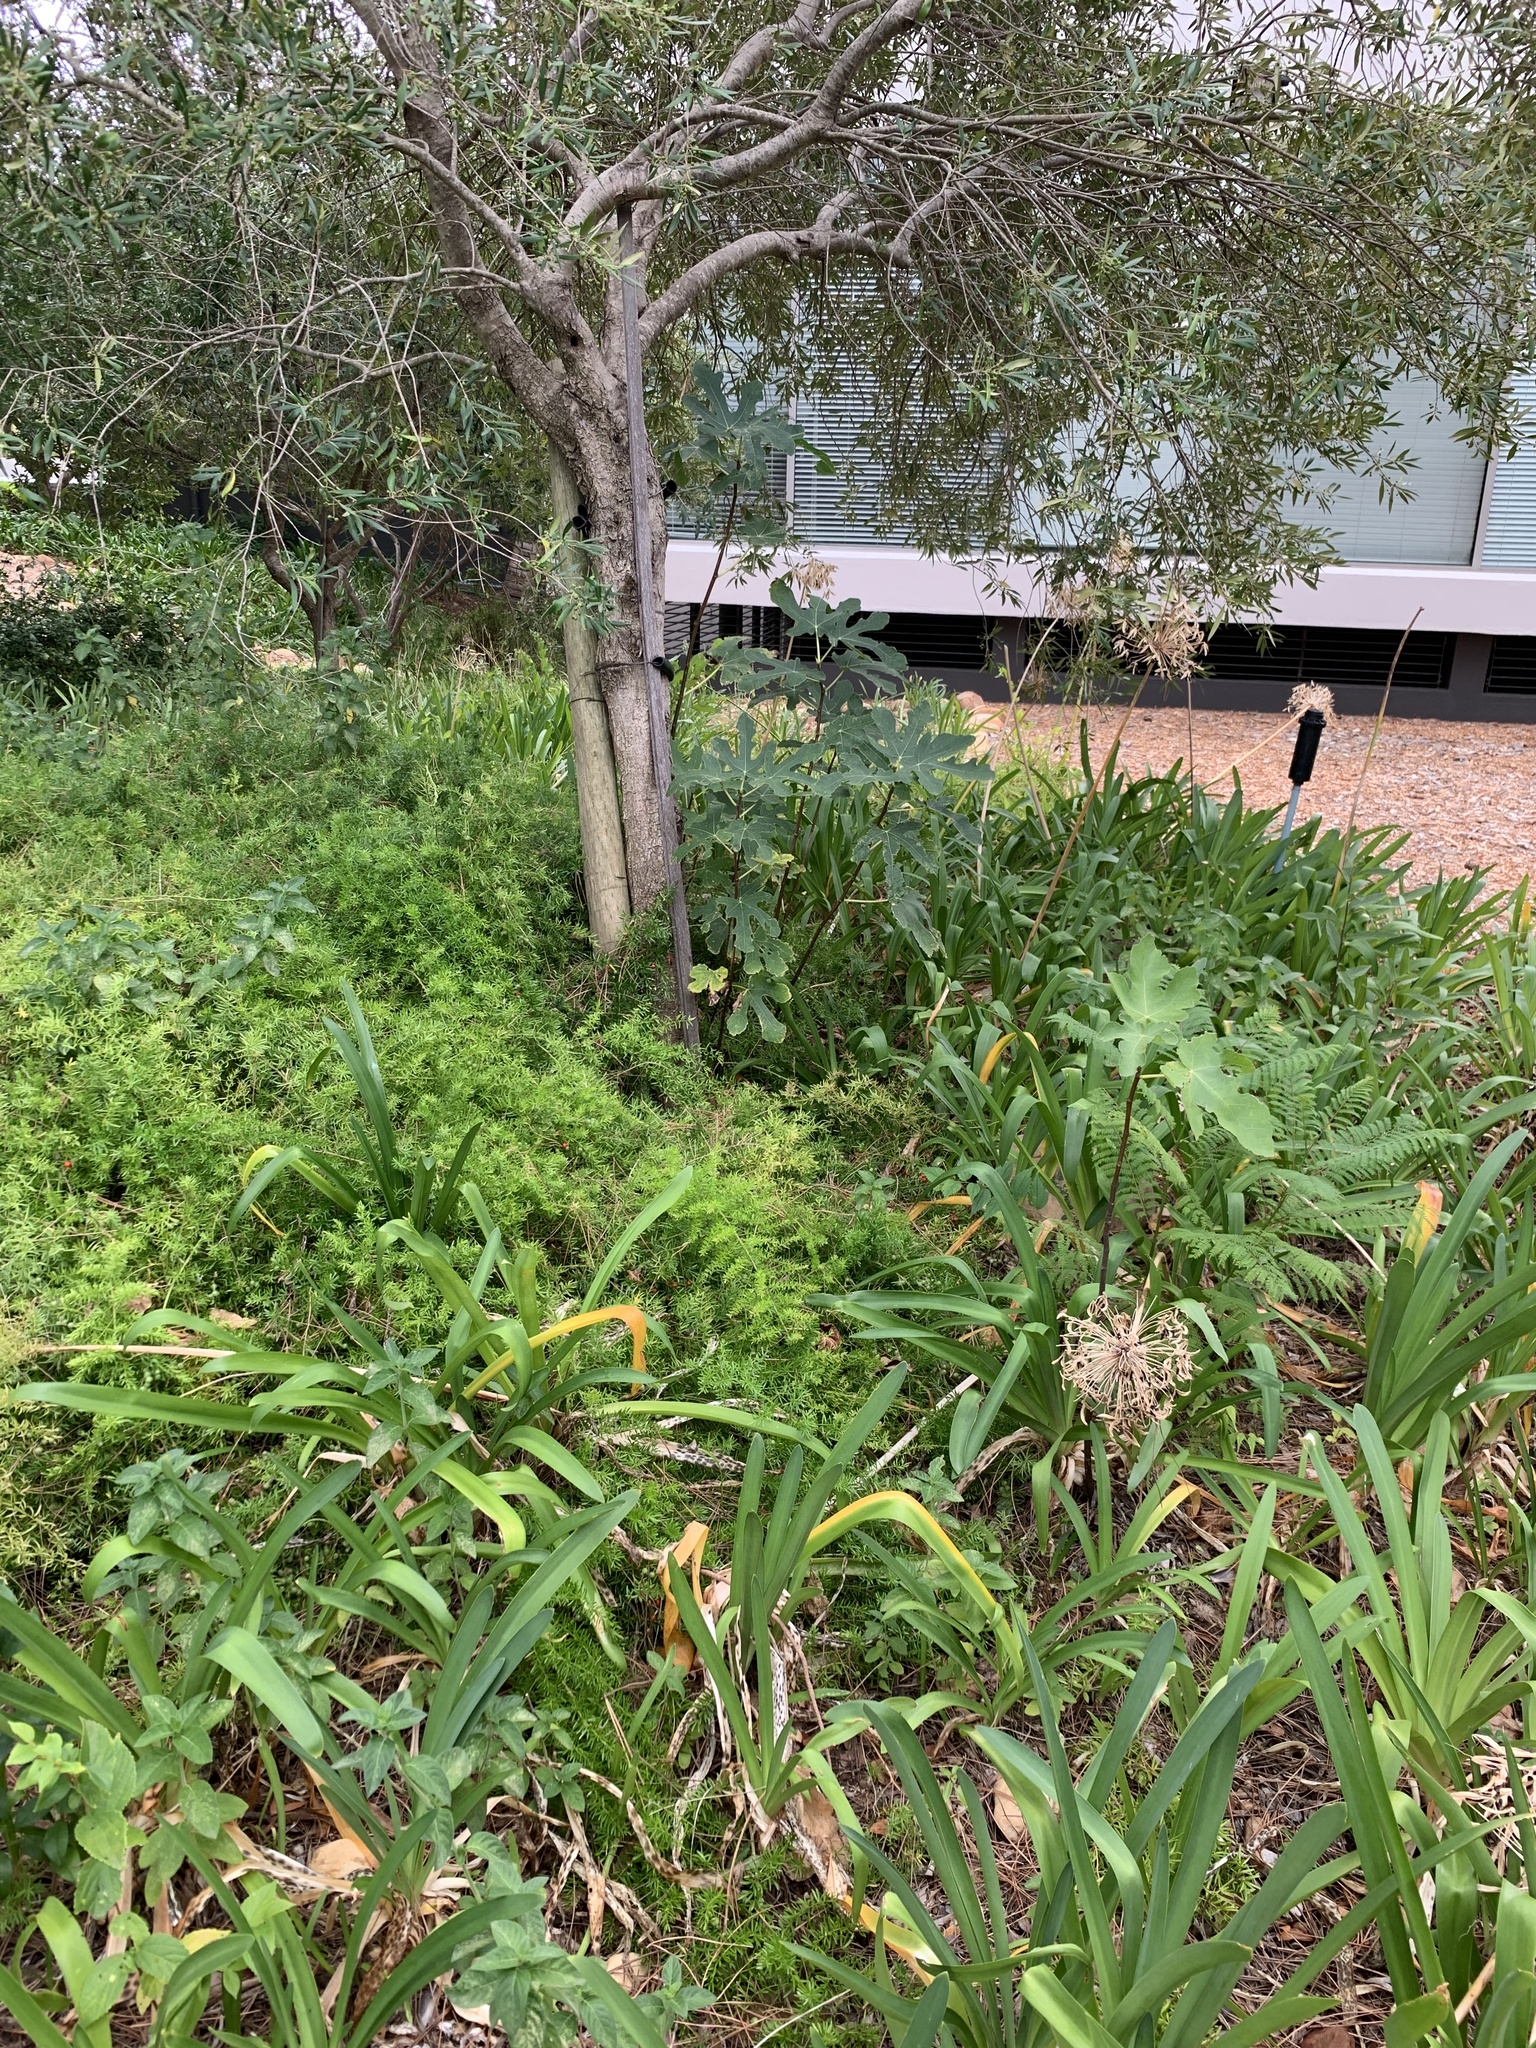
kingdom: Plantae
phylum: Tracheophyta
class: Magnoliopsida
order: Rosales
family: Moraceae
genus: Ficus
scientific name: Ficus carica
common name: Fig
